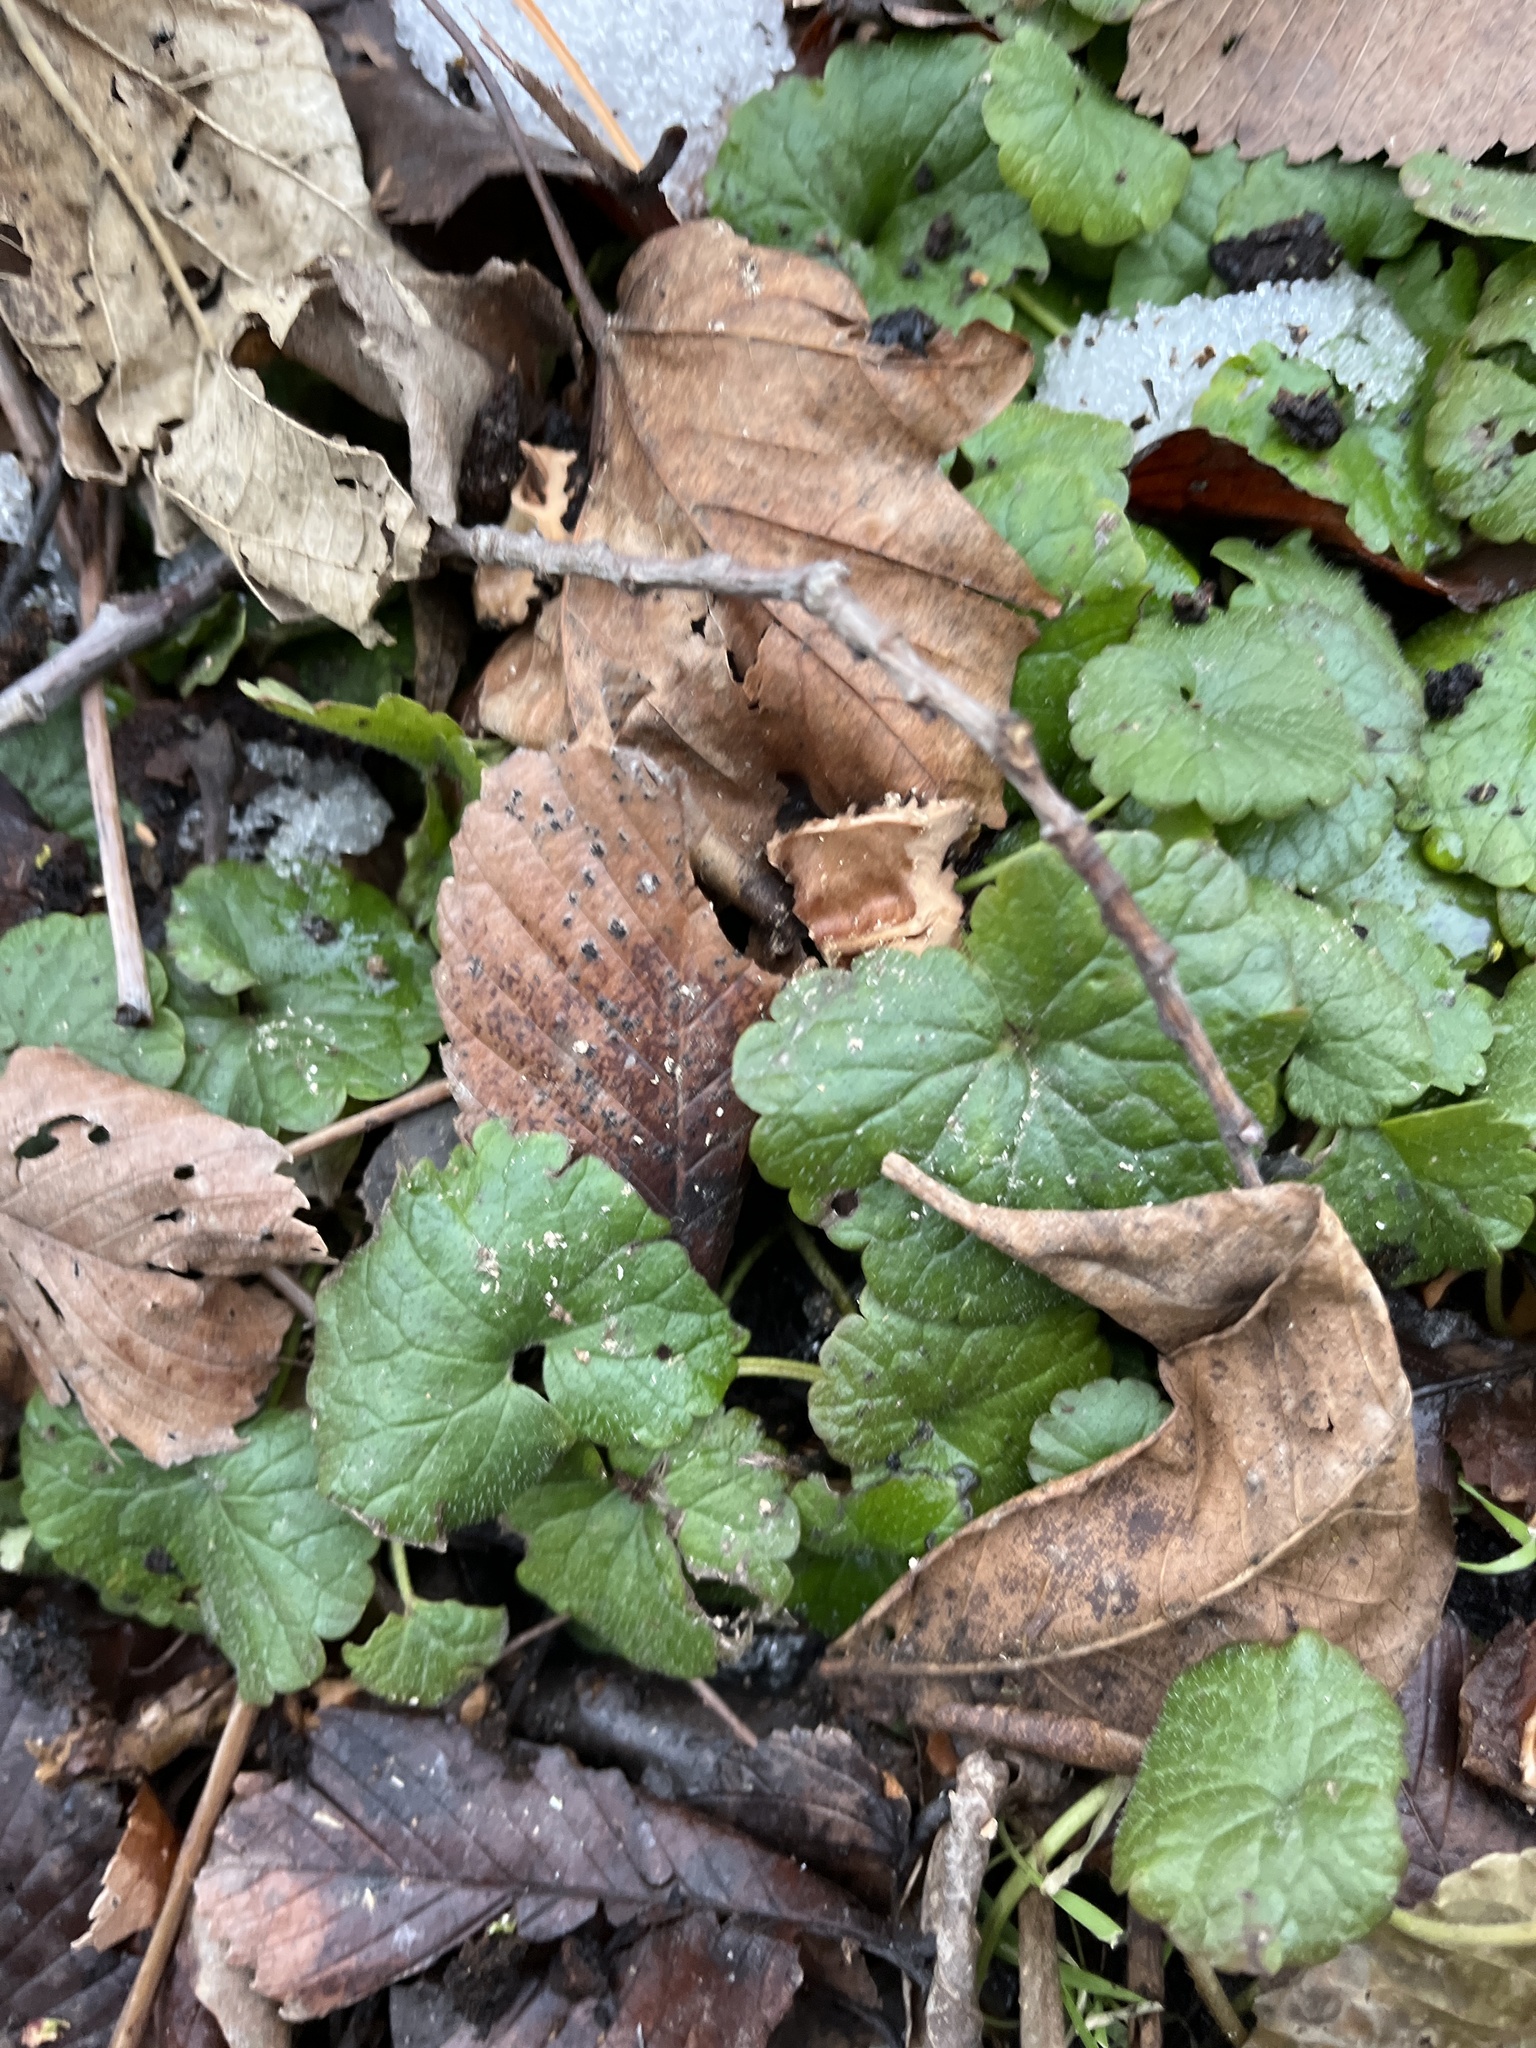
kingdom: Plantae
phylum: Tracheophyta
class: Magnoliopsida
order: Lamiales
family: Lamiaceae
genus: Glechoma
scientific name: Glechoma hederacea
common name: Ground ivy
